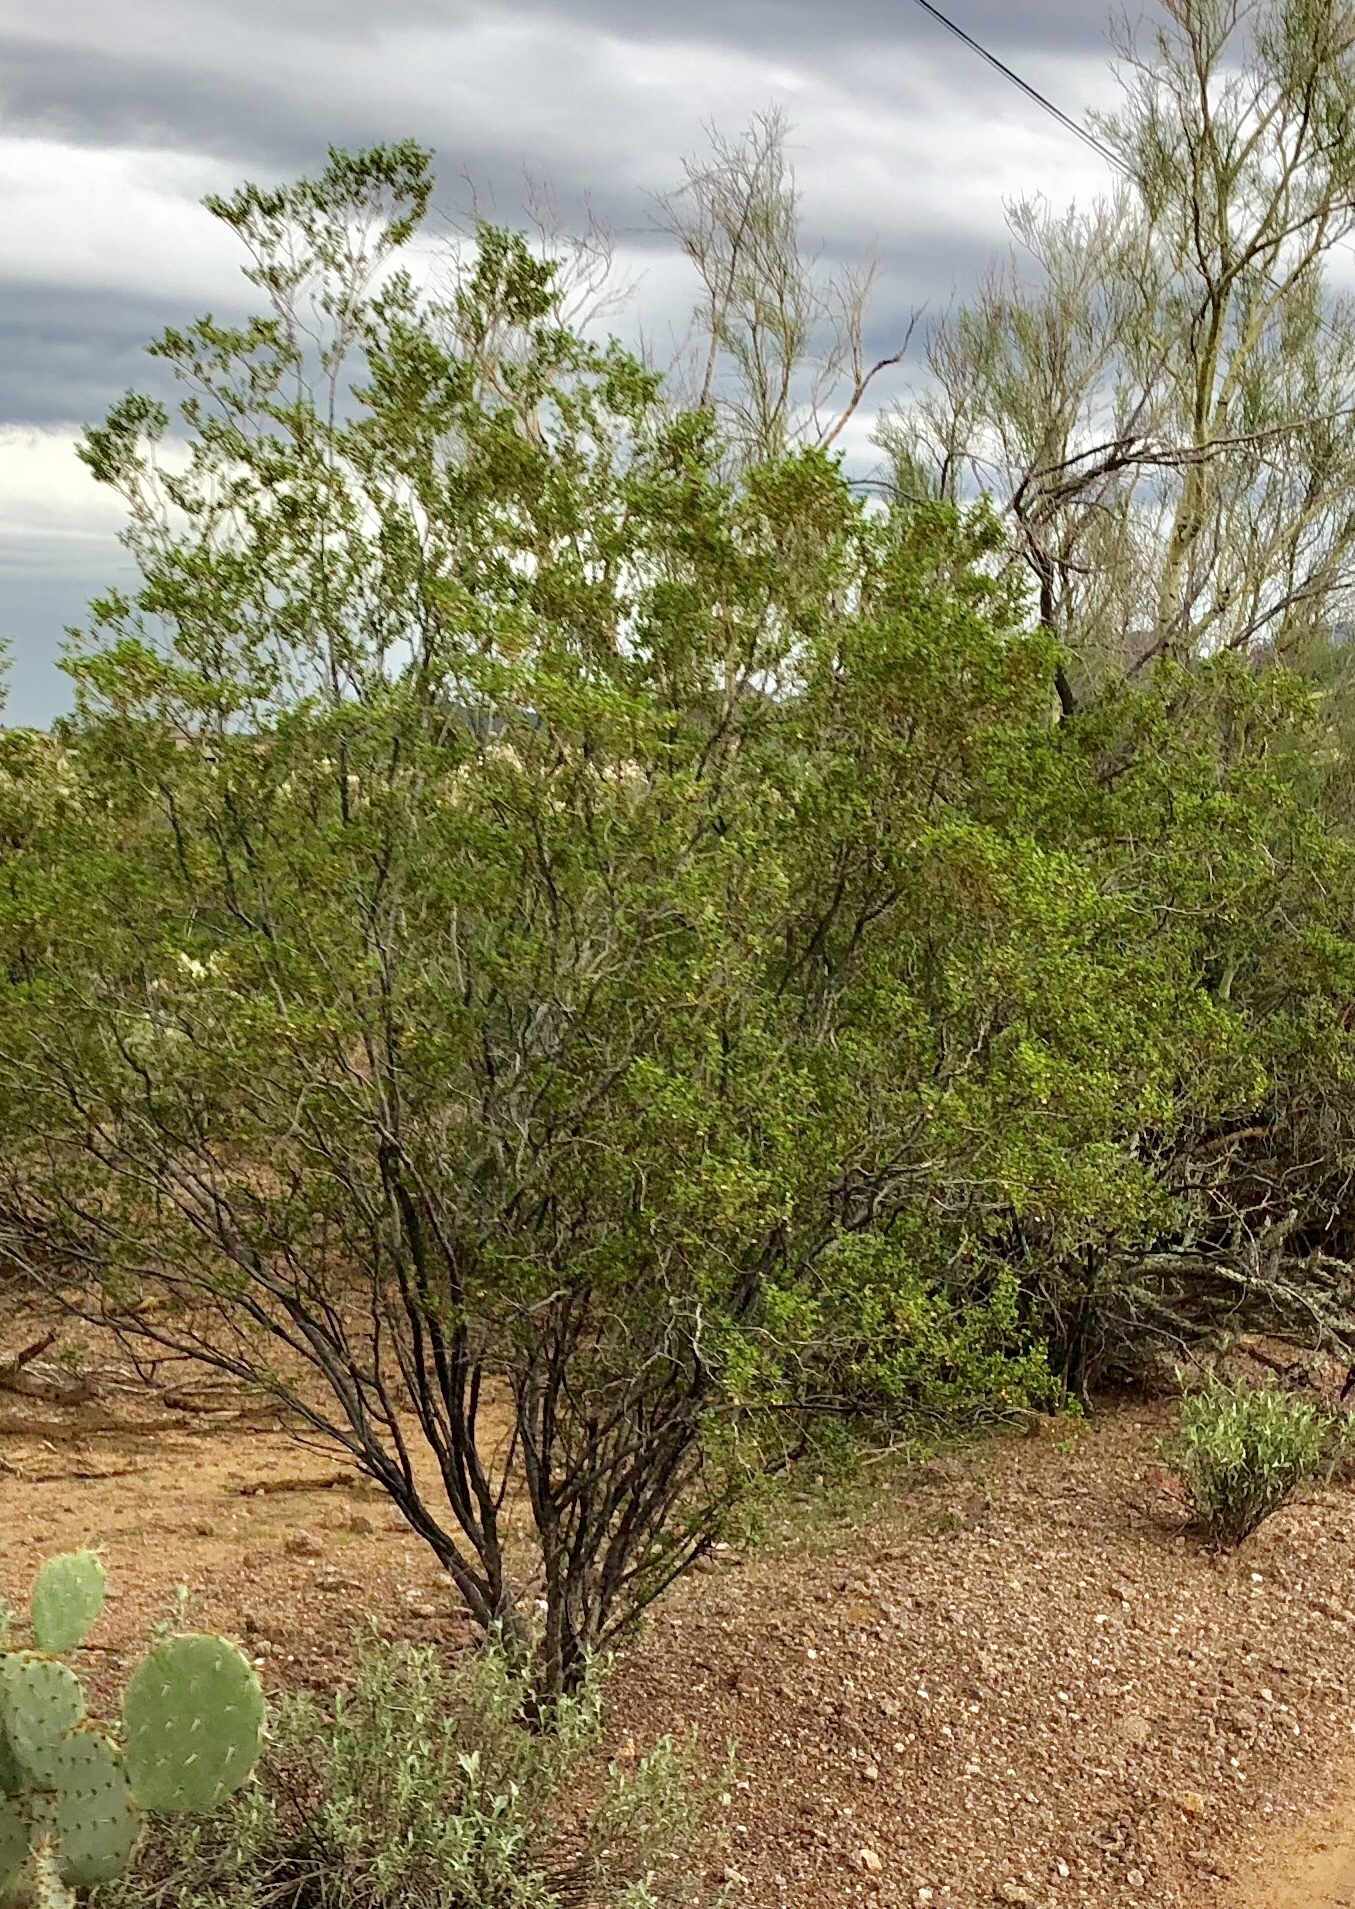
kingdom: Plantae
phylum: Tracheophyta
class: Magnoliopsida
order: Zygophyllales
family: Zygophyllaceae
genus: Larrea
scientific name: Larrea tridentata
